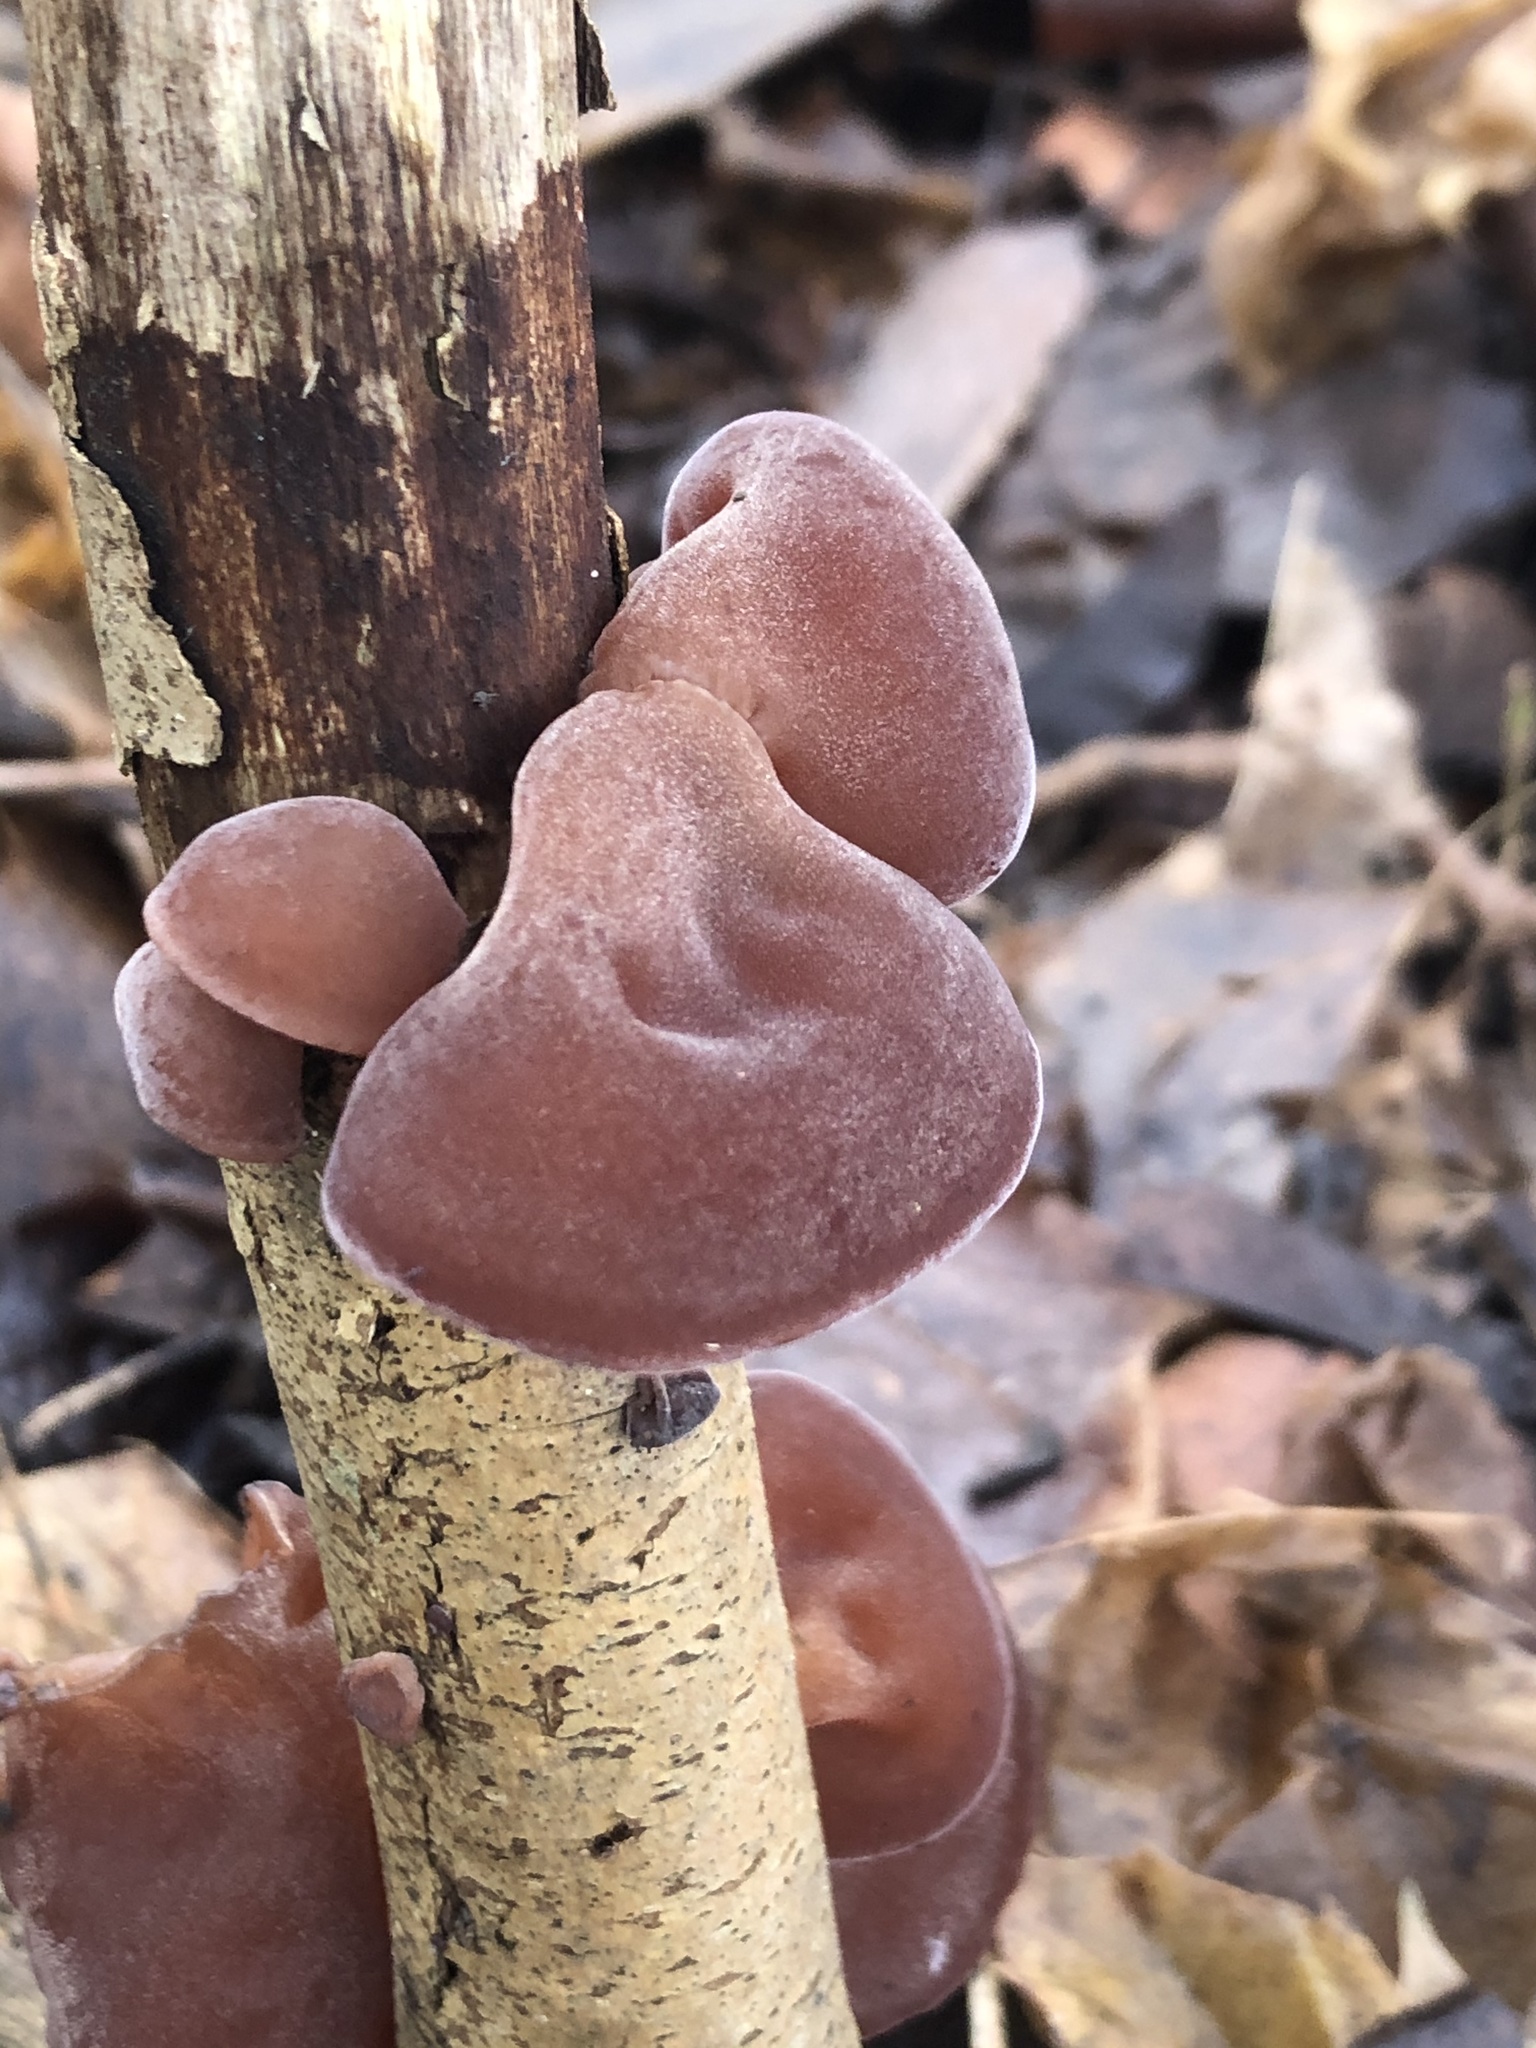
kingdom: Fungi
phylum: Basidiomycota
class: Agaricomycetes
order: Auriculariales
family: Auriculariaceae
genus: Auricularia
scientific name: Auricularia auricula-judae
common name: Jelly ear
